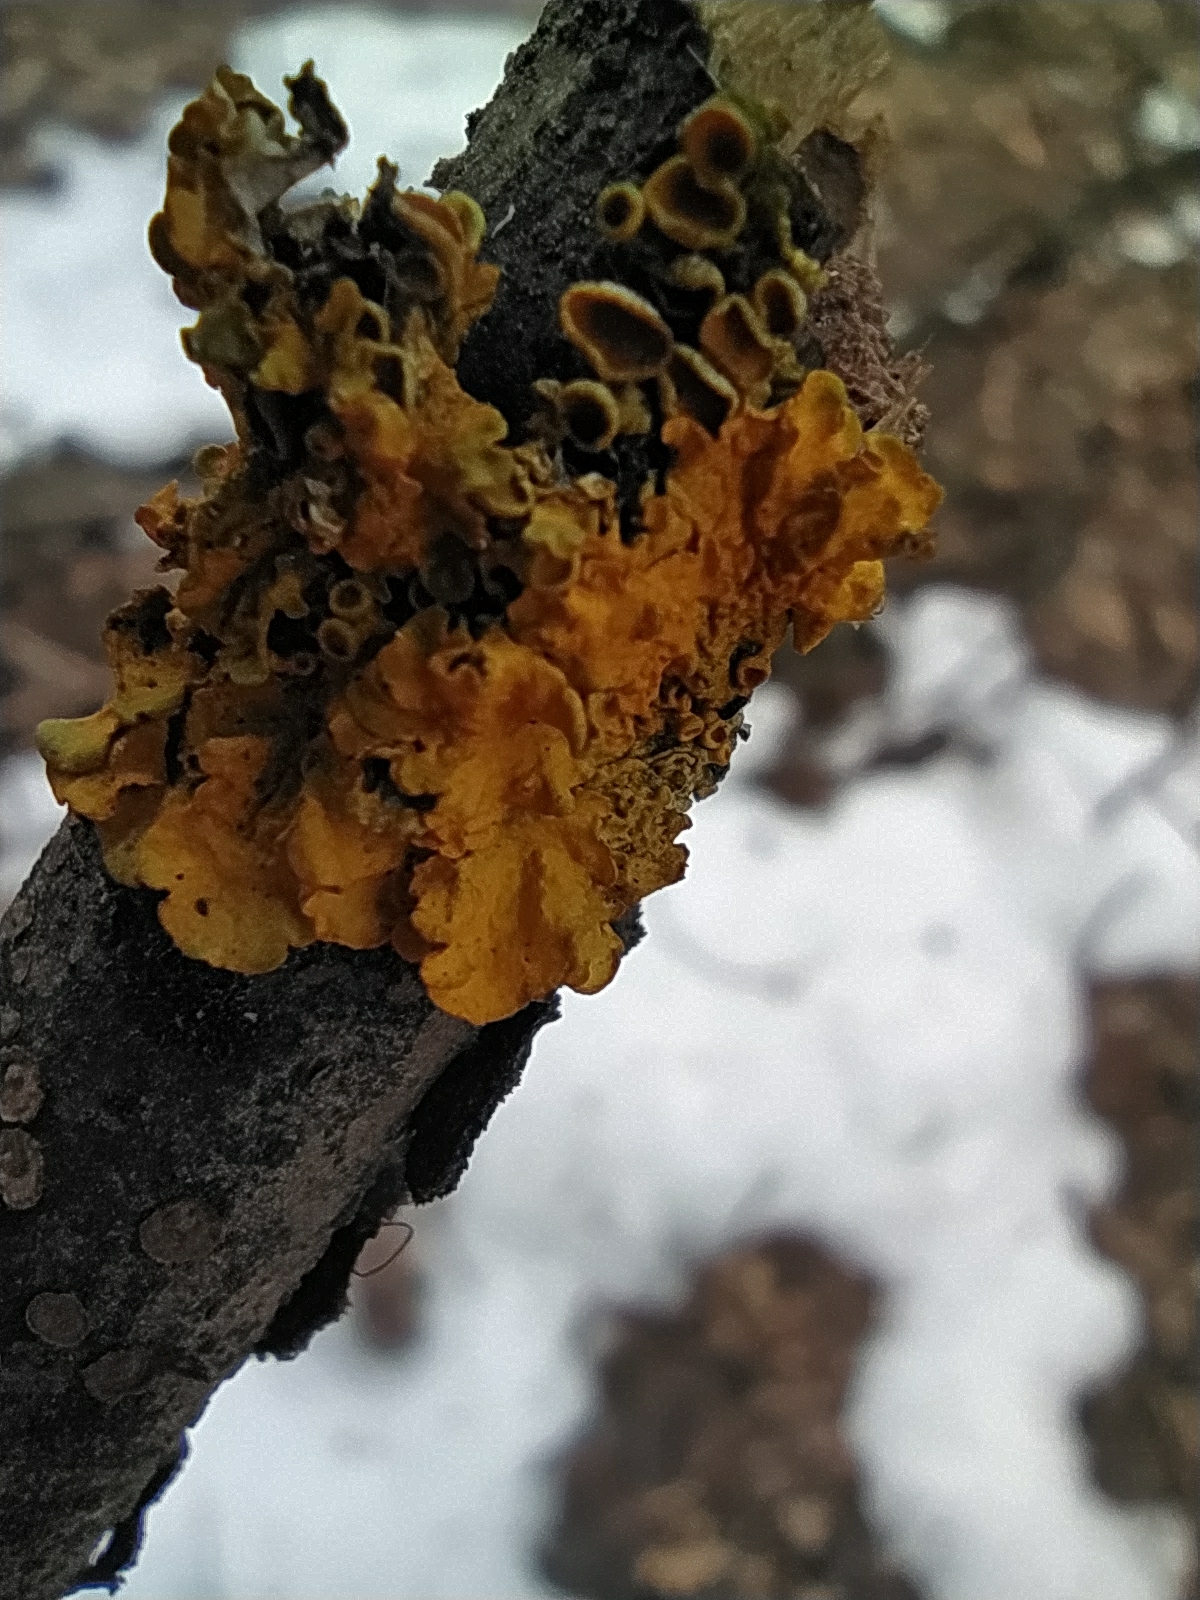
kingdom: Fungi
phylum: Ascomycota
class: Lecanoromycetes
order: Teloschistales
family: Teloschistaceae
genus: Xanthoria
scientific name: Xanthoria parietina
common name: Common orange lichen
